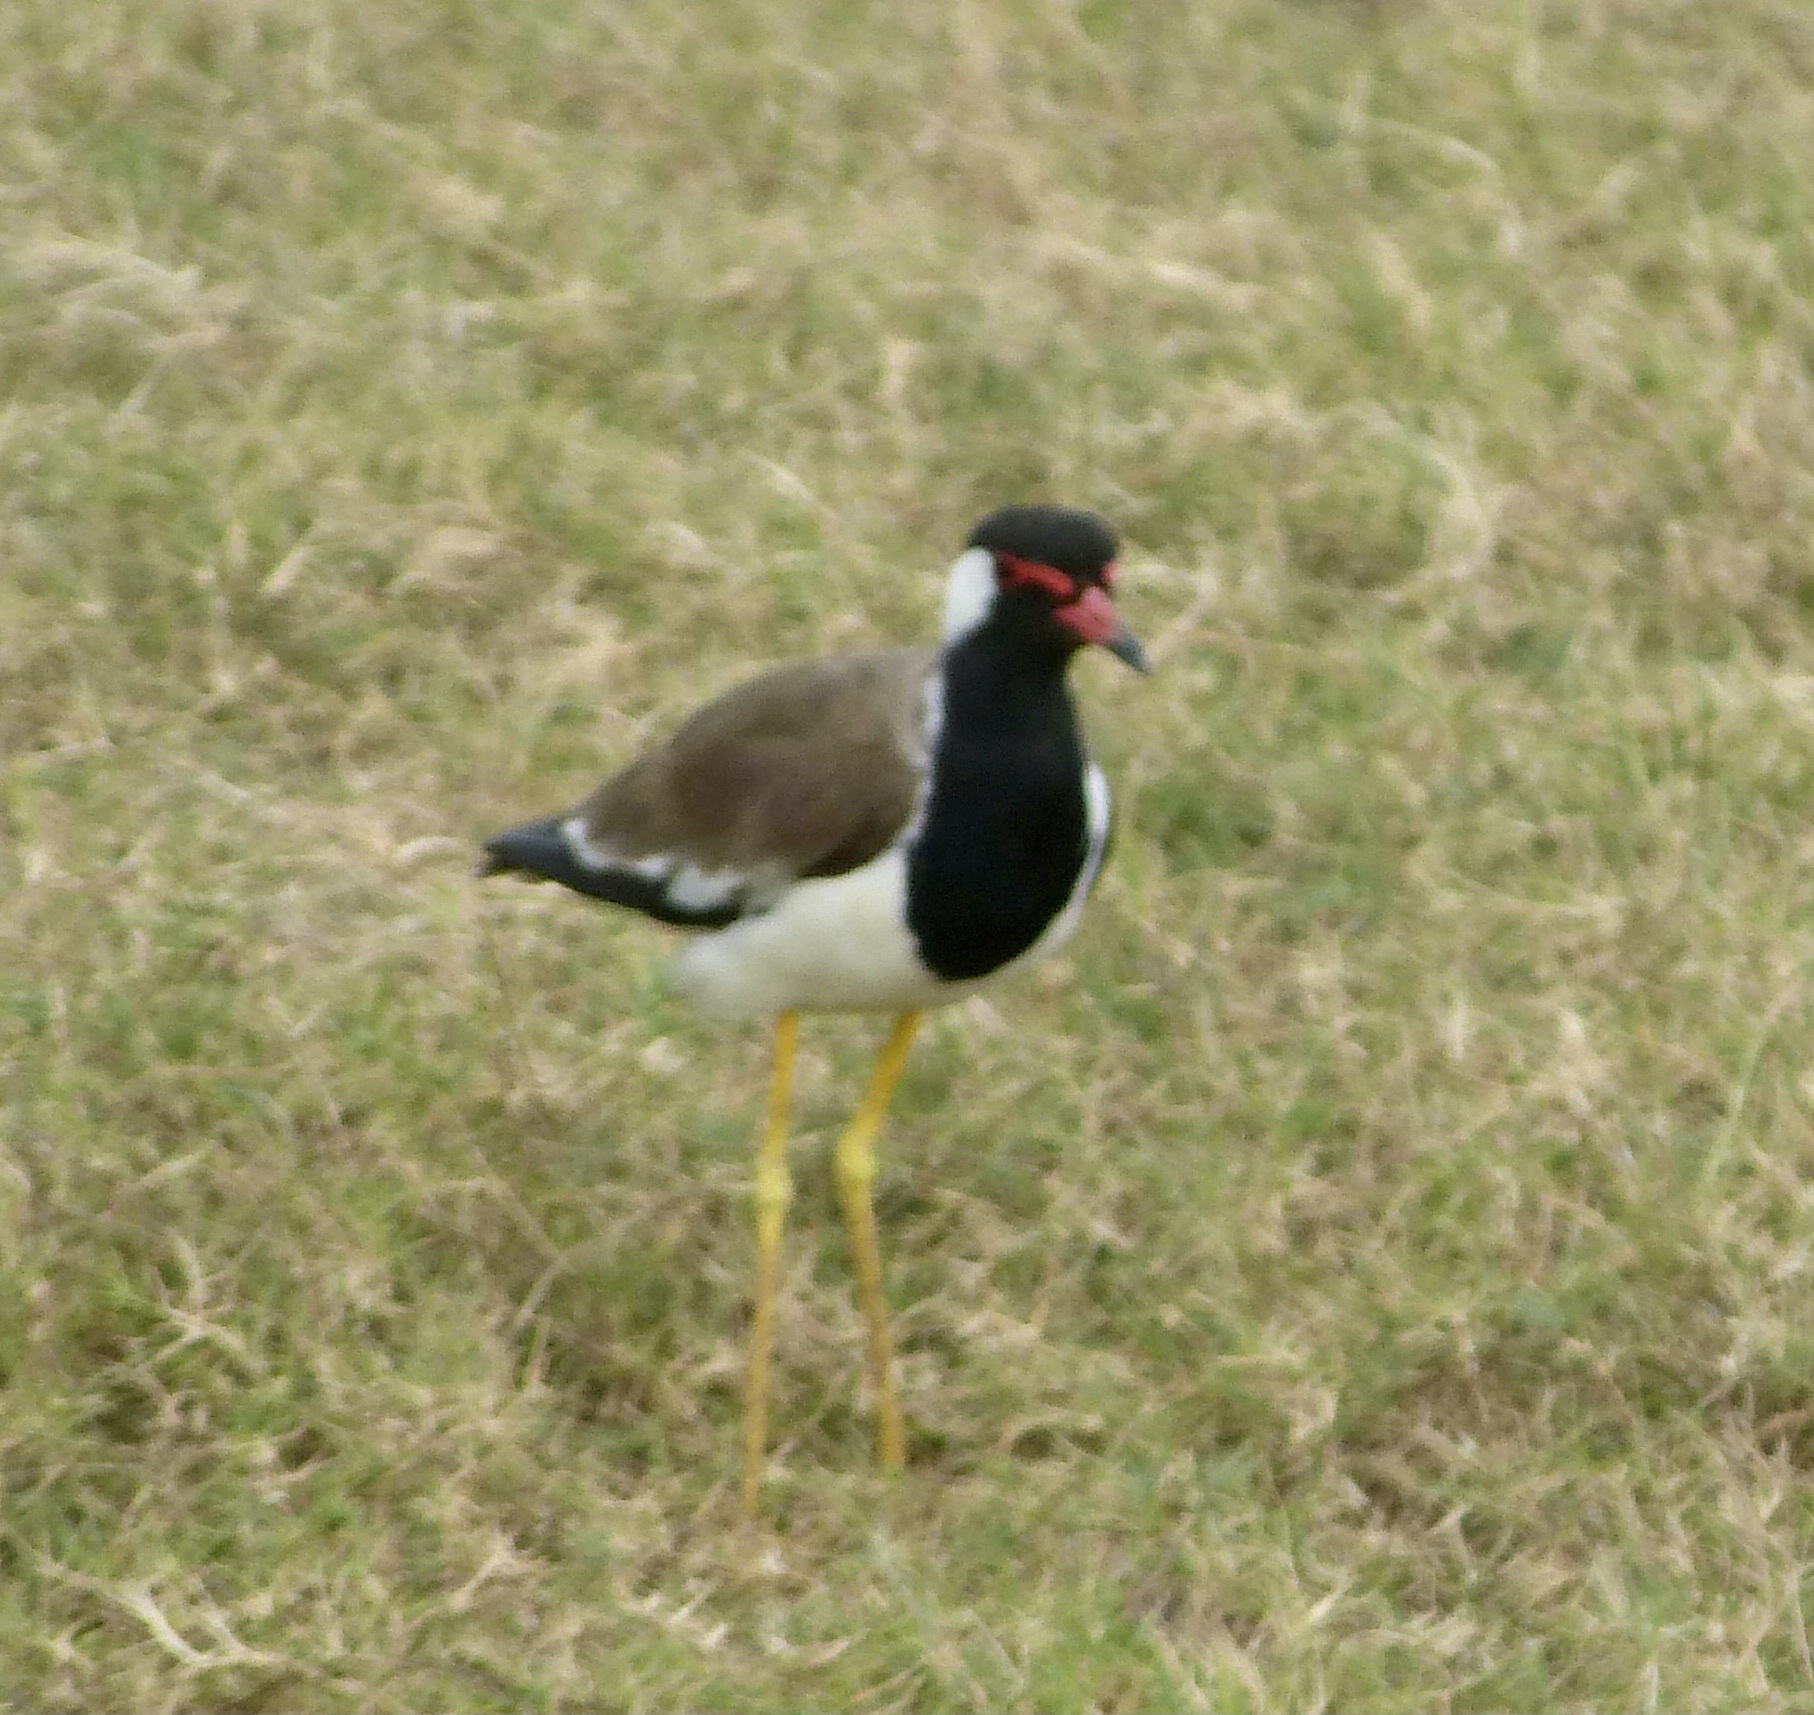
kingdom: Animalia
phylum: Chordata
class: Aves
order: Charadriiformes
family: Charadriidae
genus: Vanellus
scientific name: Vanellus indicus
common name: Red-wattled lapwing
